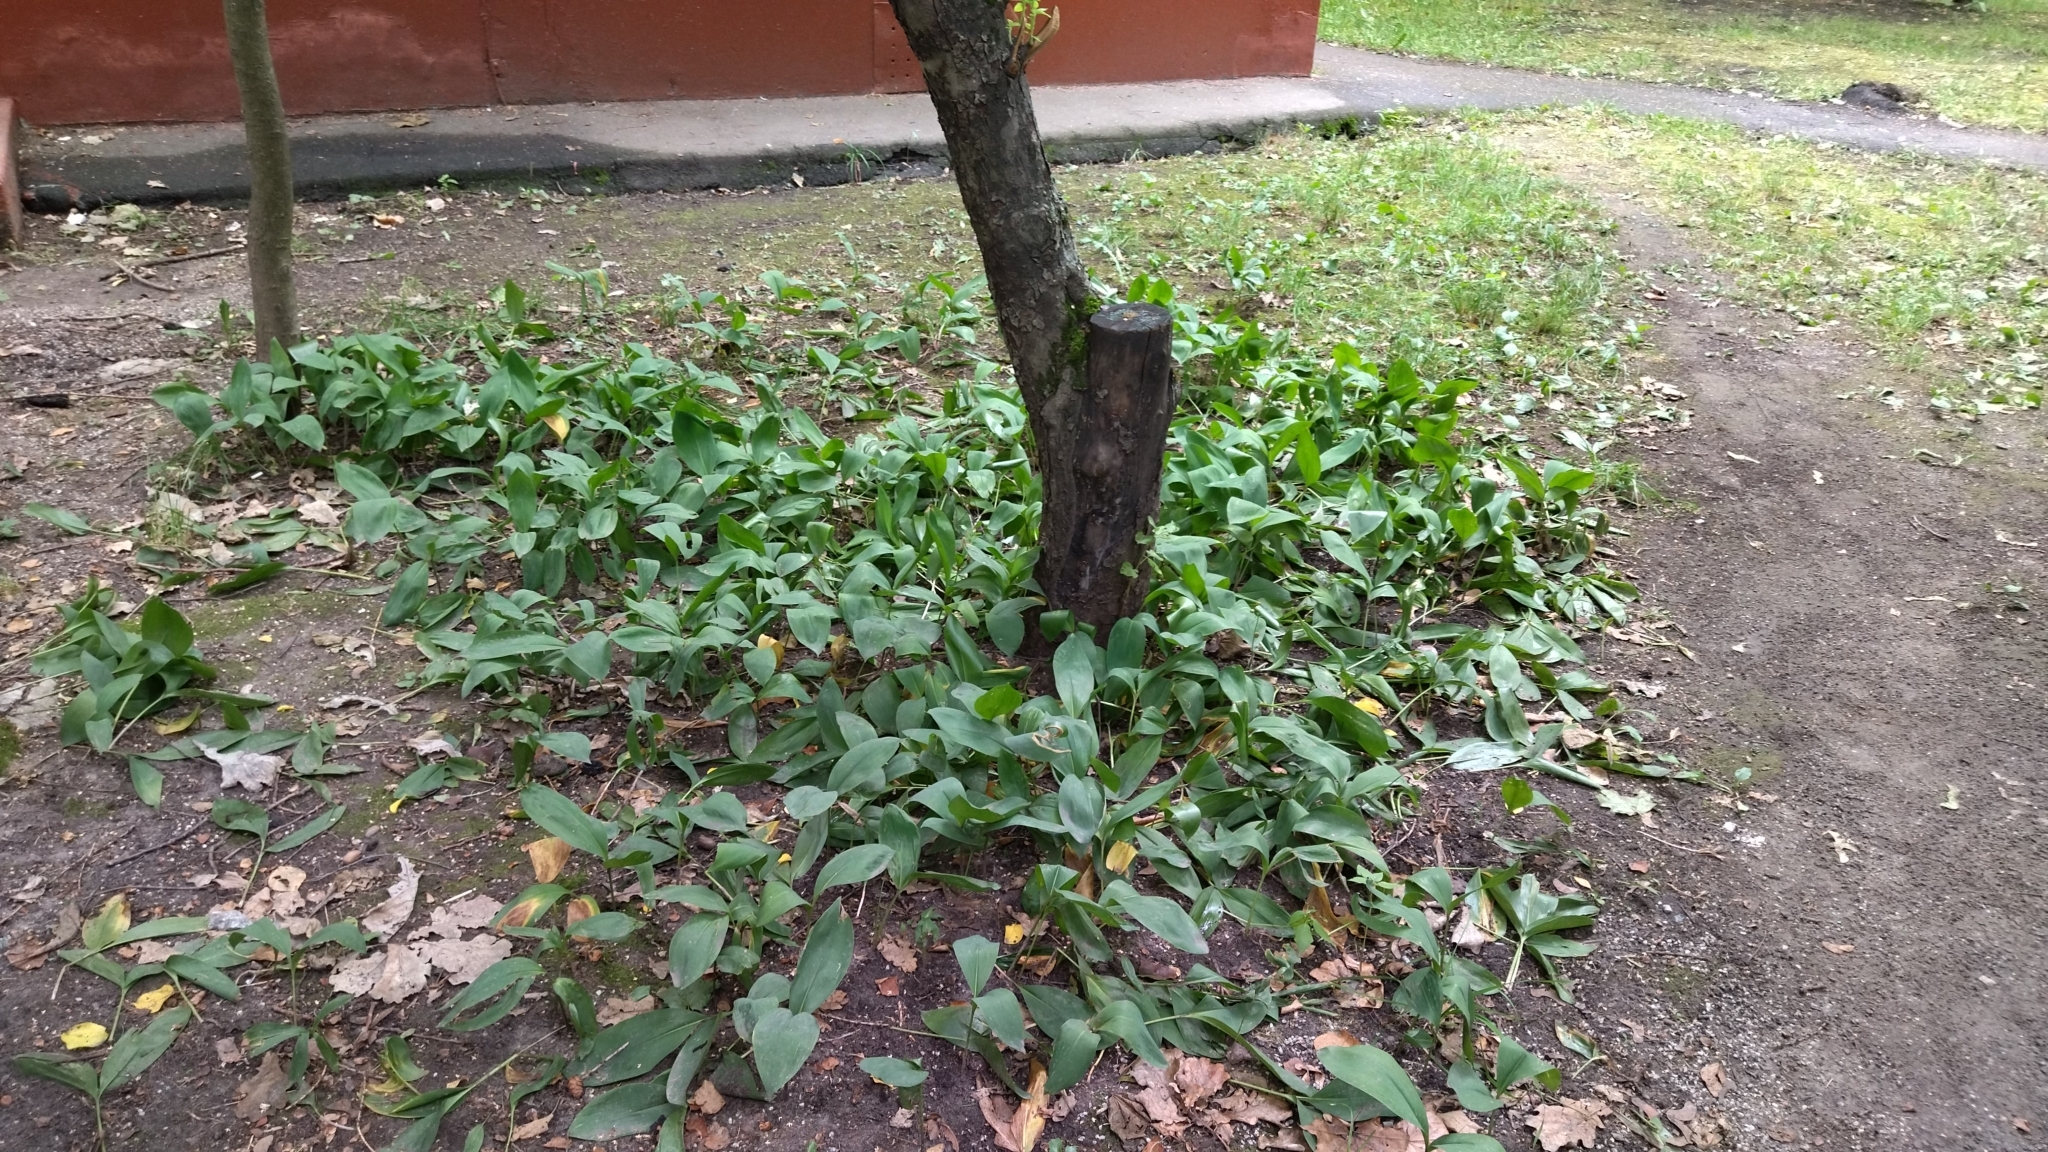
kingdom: Plantae
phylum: Tracheophyta
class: Liliopsida
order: Asparagales
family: Asparagaceae
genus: Convallaria
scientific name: Convallaria majalis
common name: Lily-of-the-valley
